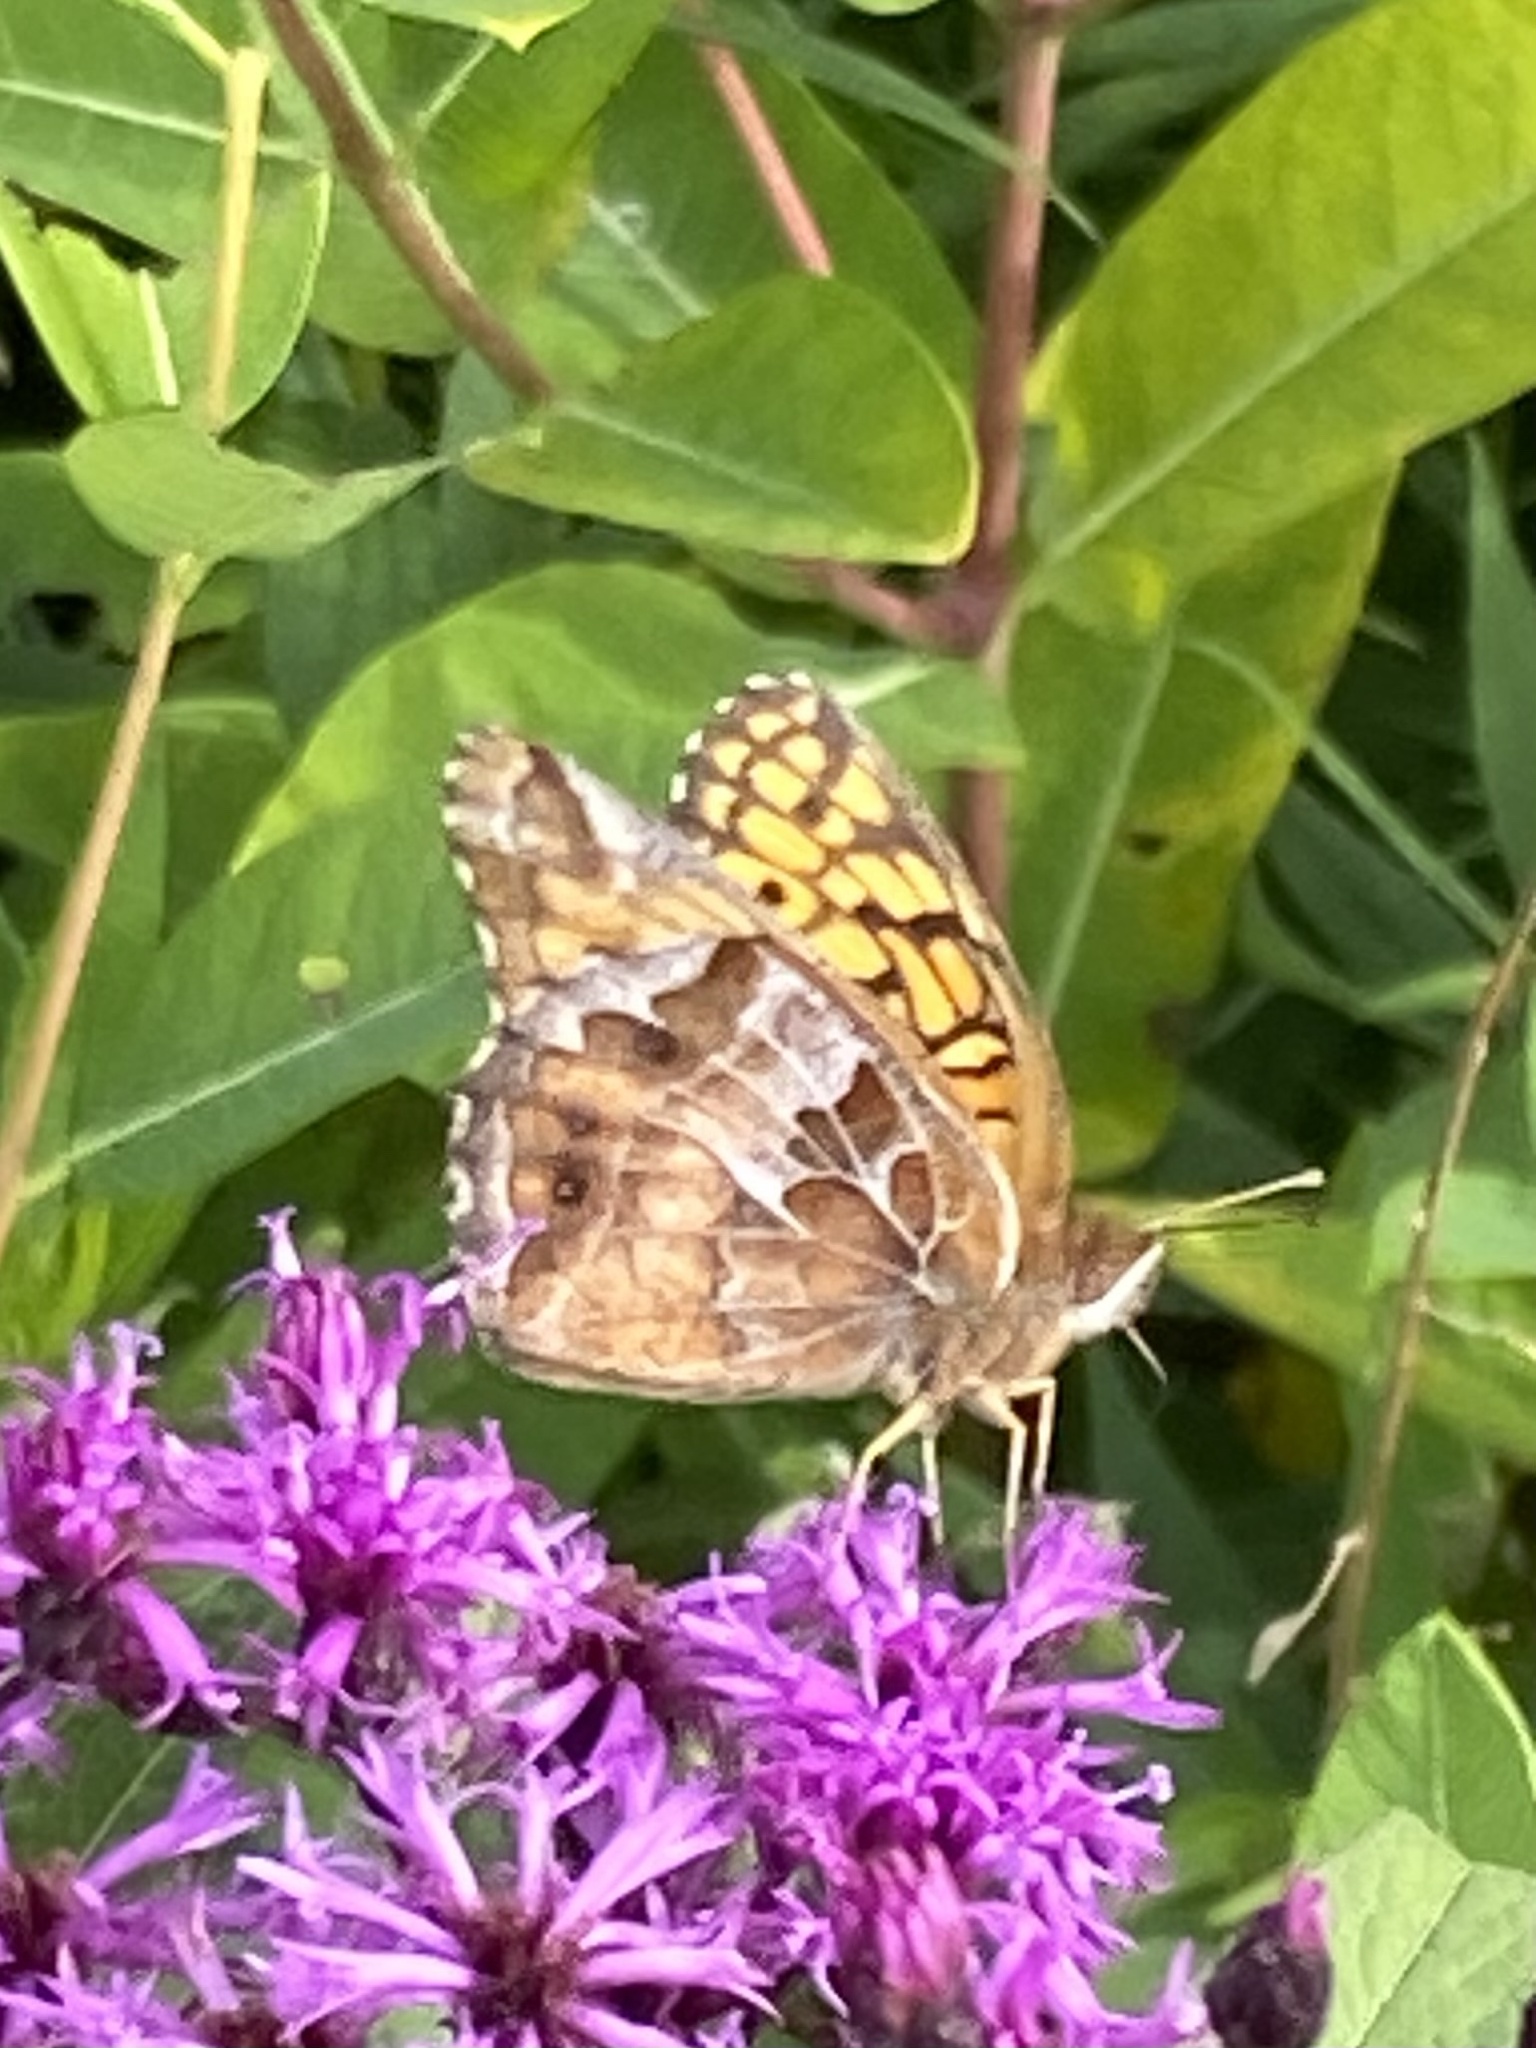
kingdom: Animalia
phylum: Arthropoda
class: Insecta
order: Lepidoptera
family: Nymphalidae
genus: Euptoieta
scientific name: Euptoieta claudia
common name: Variegated fritillary
